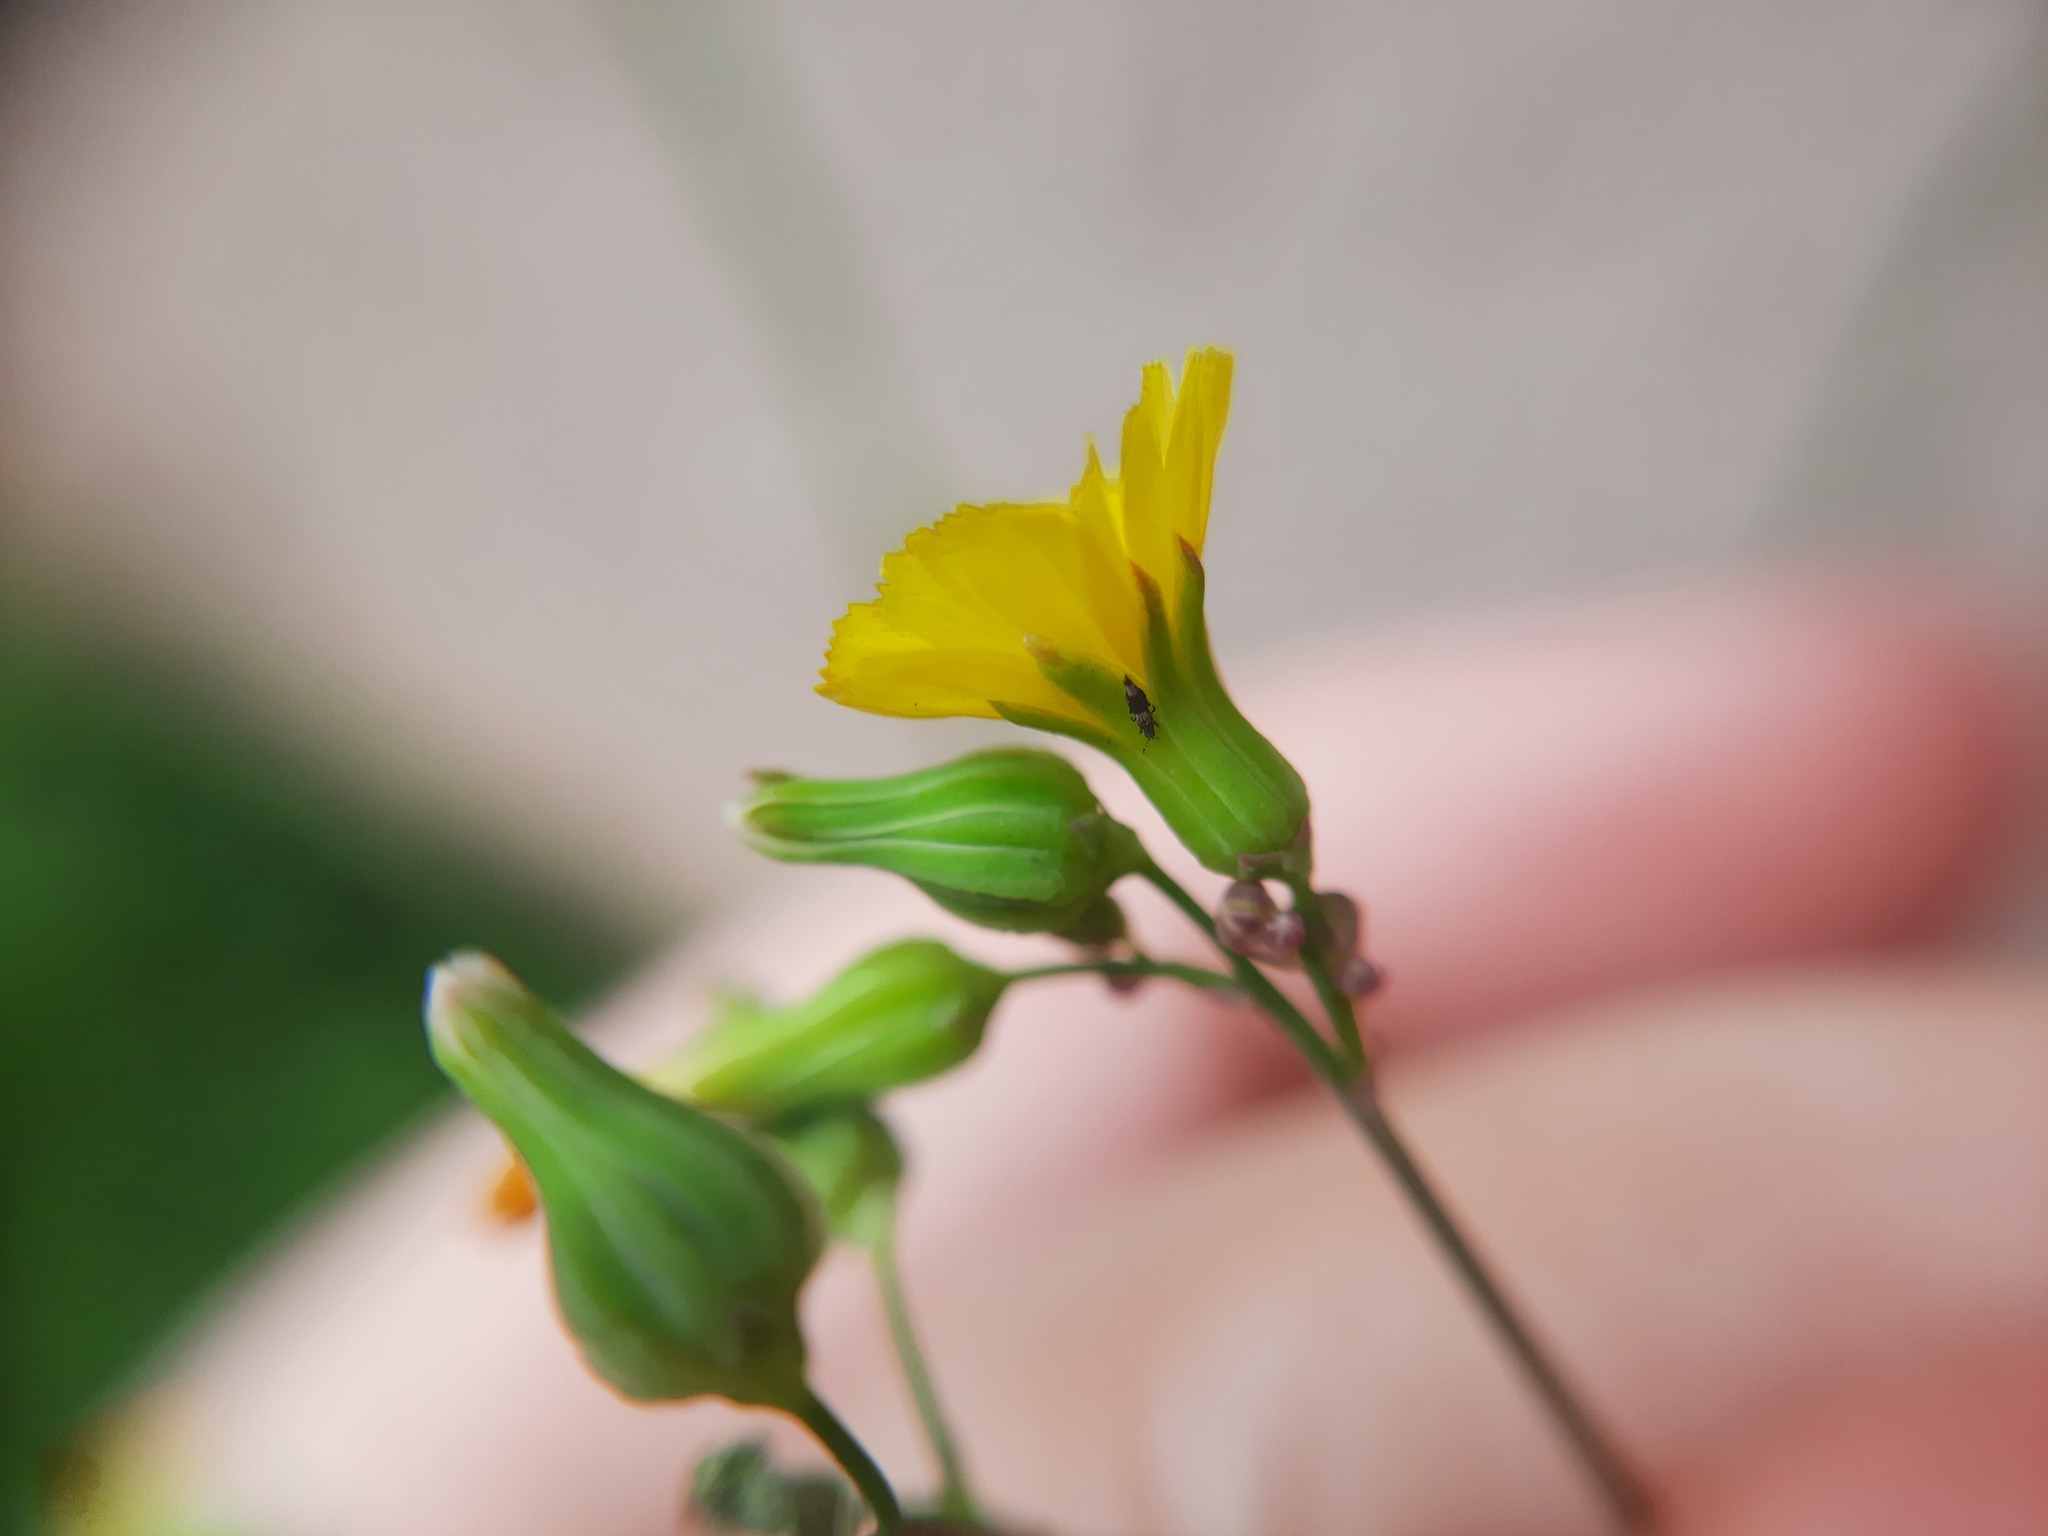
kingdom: Plantae
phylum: Tracheophyta
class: Magnoliopsida
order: Asterales
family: Asteraceae
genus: Youngia
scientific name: Youngia japonica
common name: Oriental false hawksbeard
